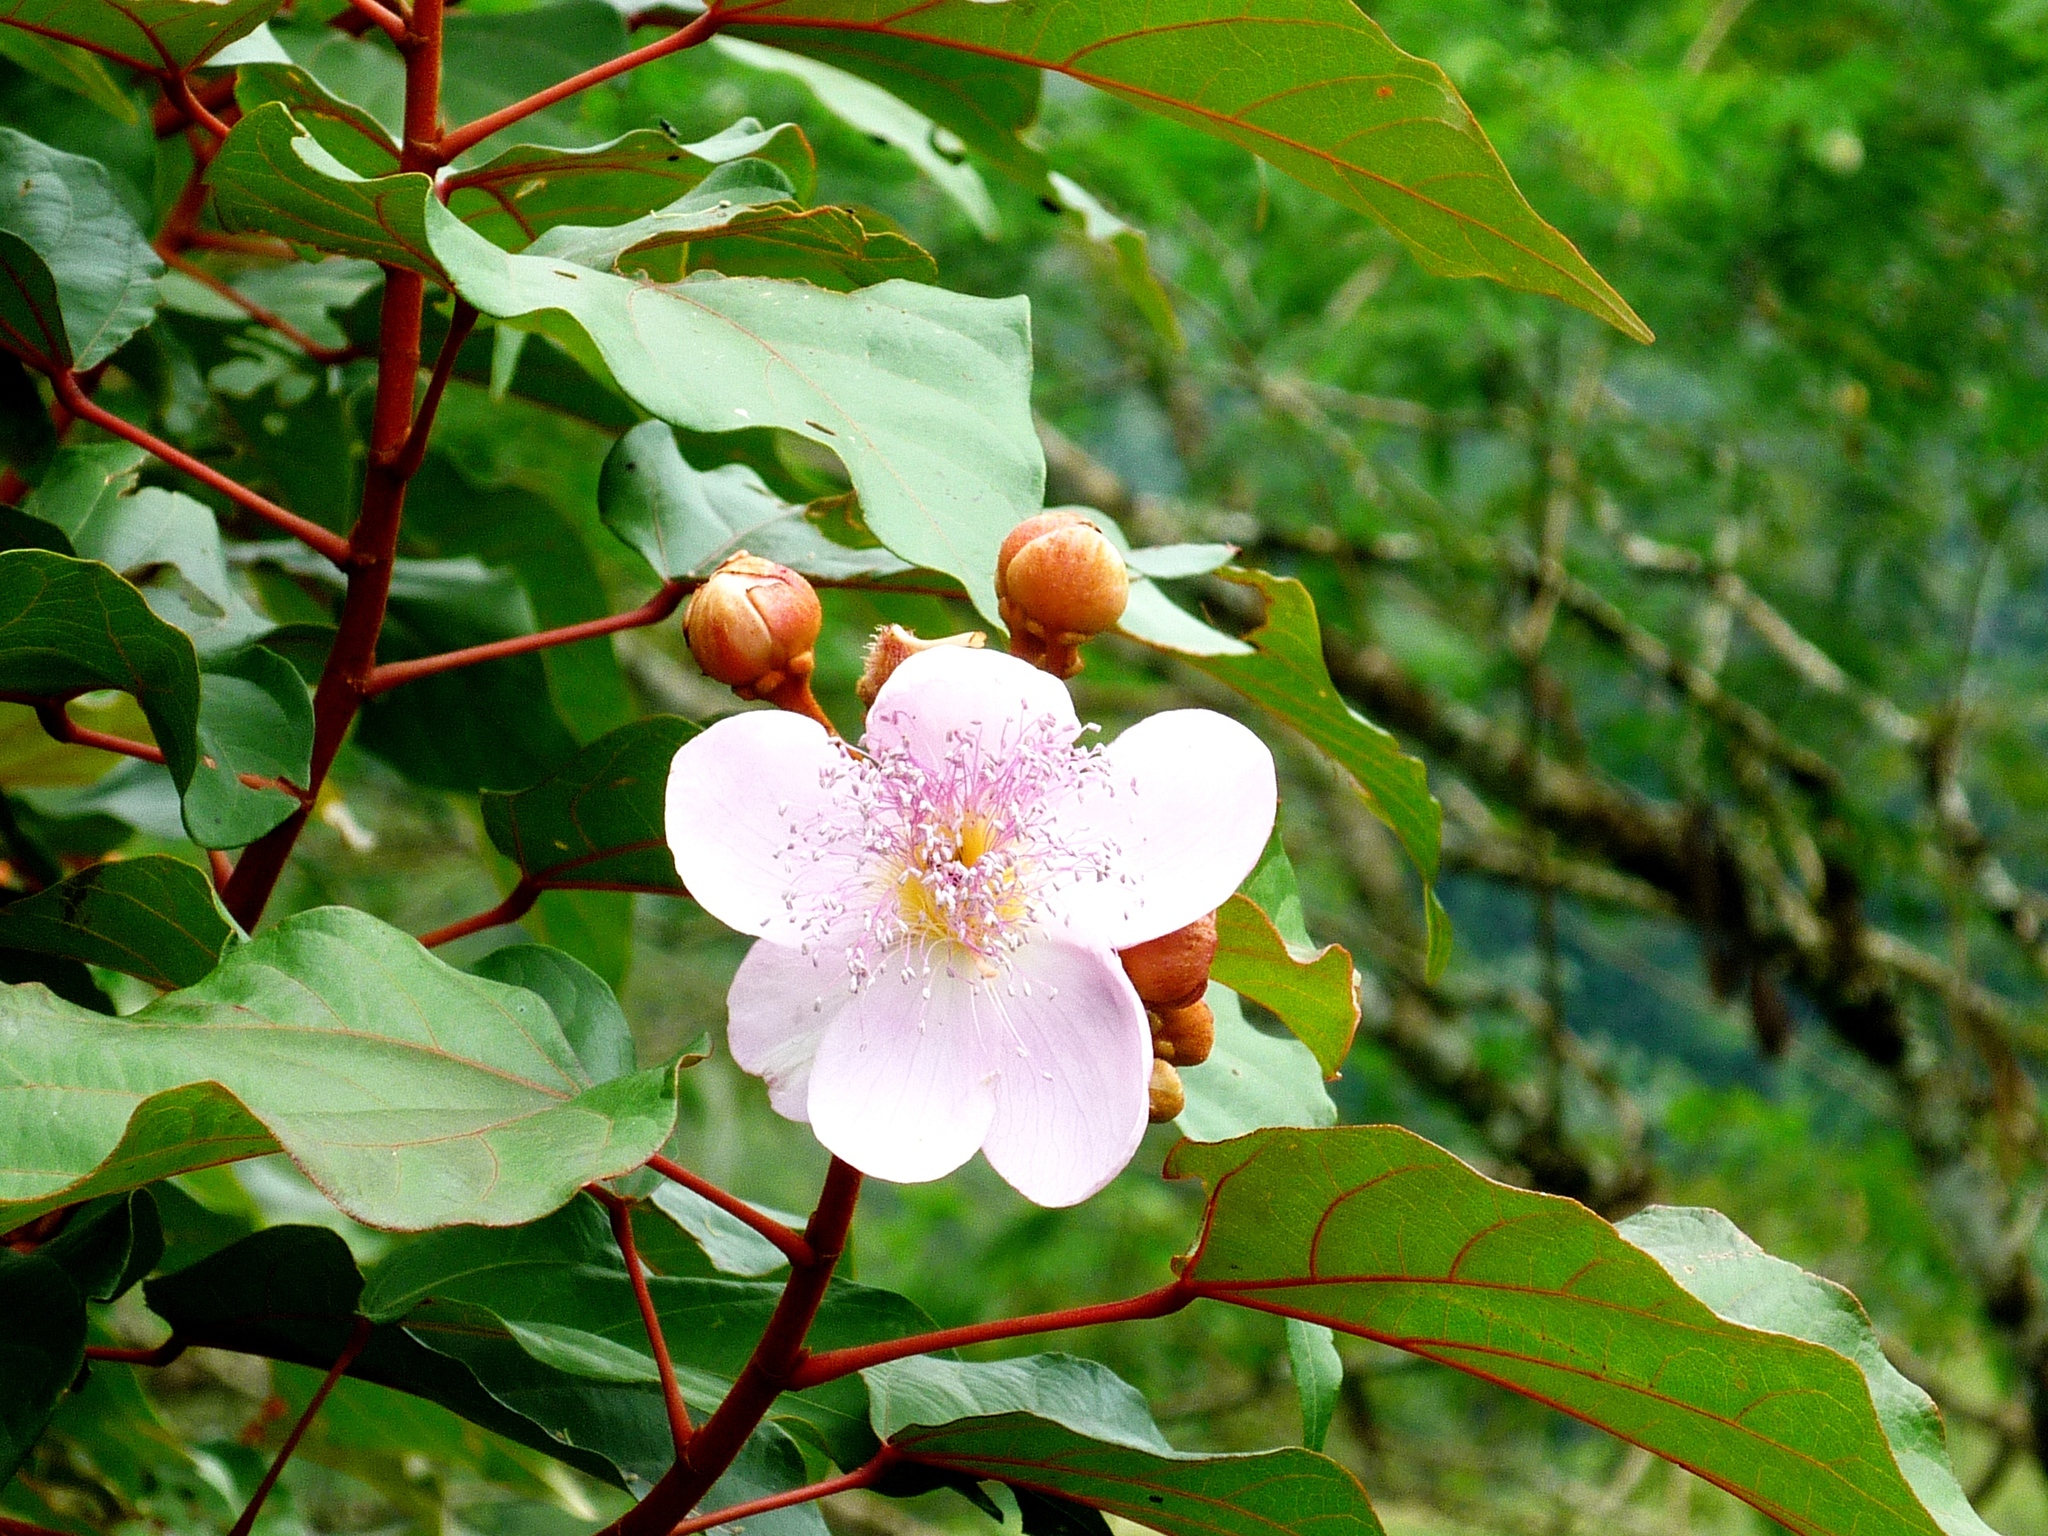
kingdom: Plantae
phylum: Tracheophyta
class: Magnoliopsida
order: Malvales
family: Bixaceae
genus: Bixa
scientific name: Bixa orellana
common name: Lipsticktree
